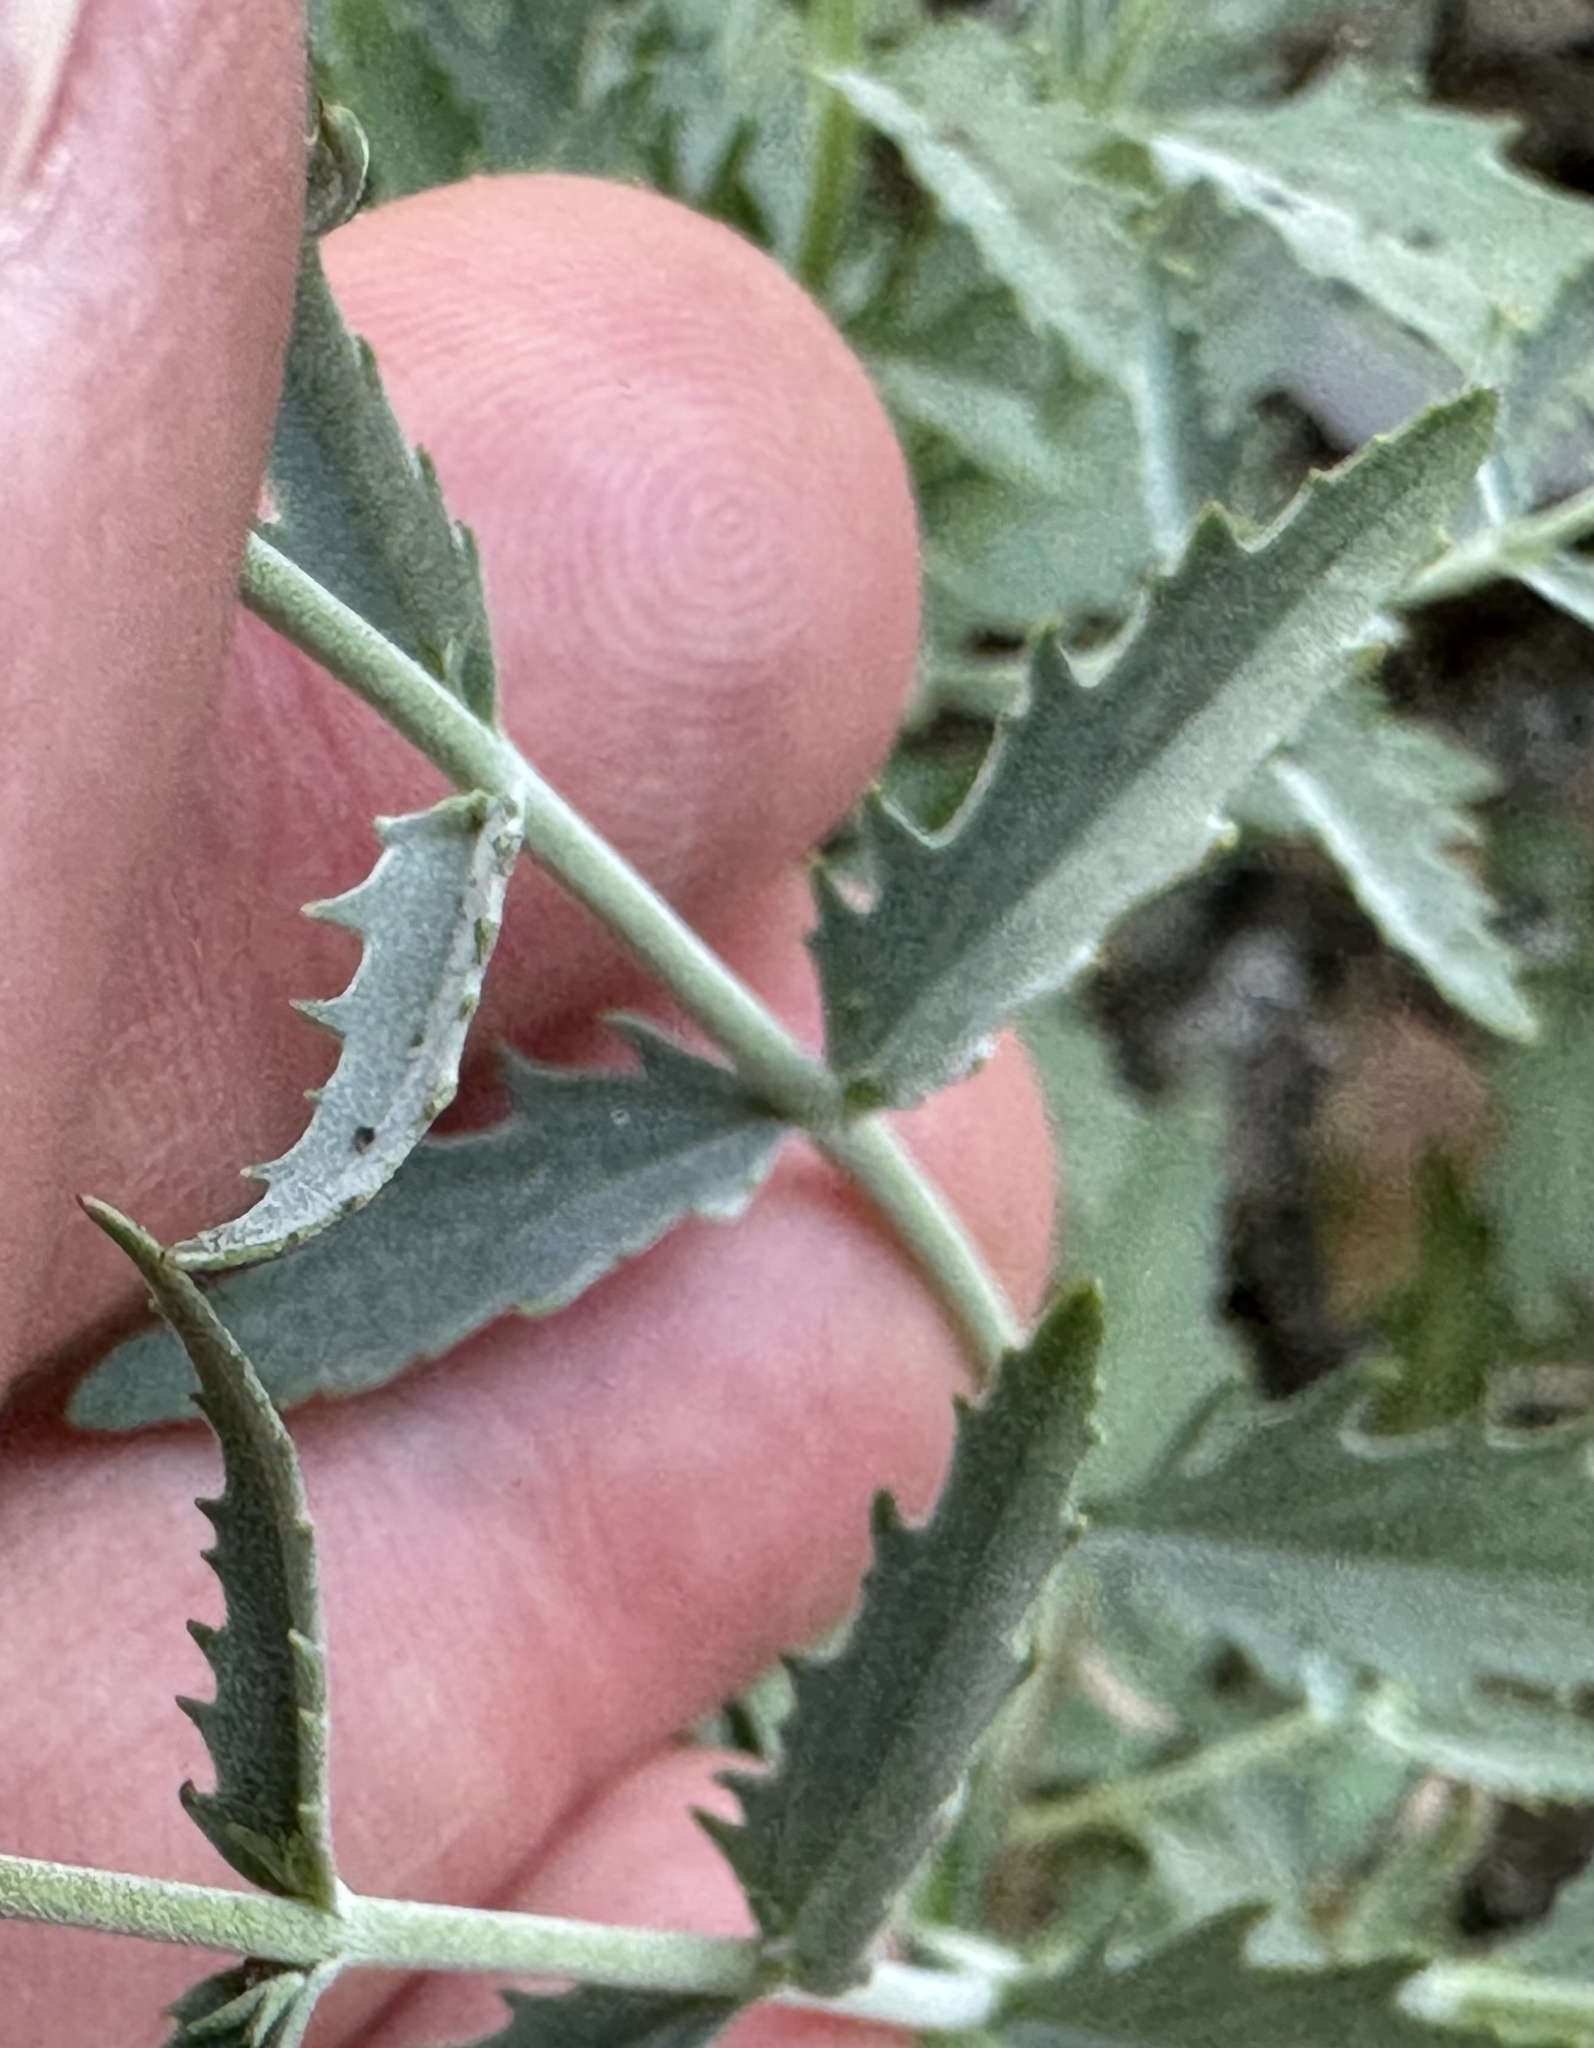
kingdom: Plantae
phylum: Tracheophyta
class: Magnoliopsida
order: Lamiales
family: Plantaginaceae
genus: Penstemon
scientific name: Penstemon richardsonii
